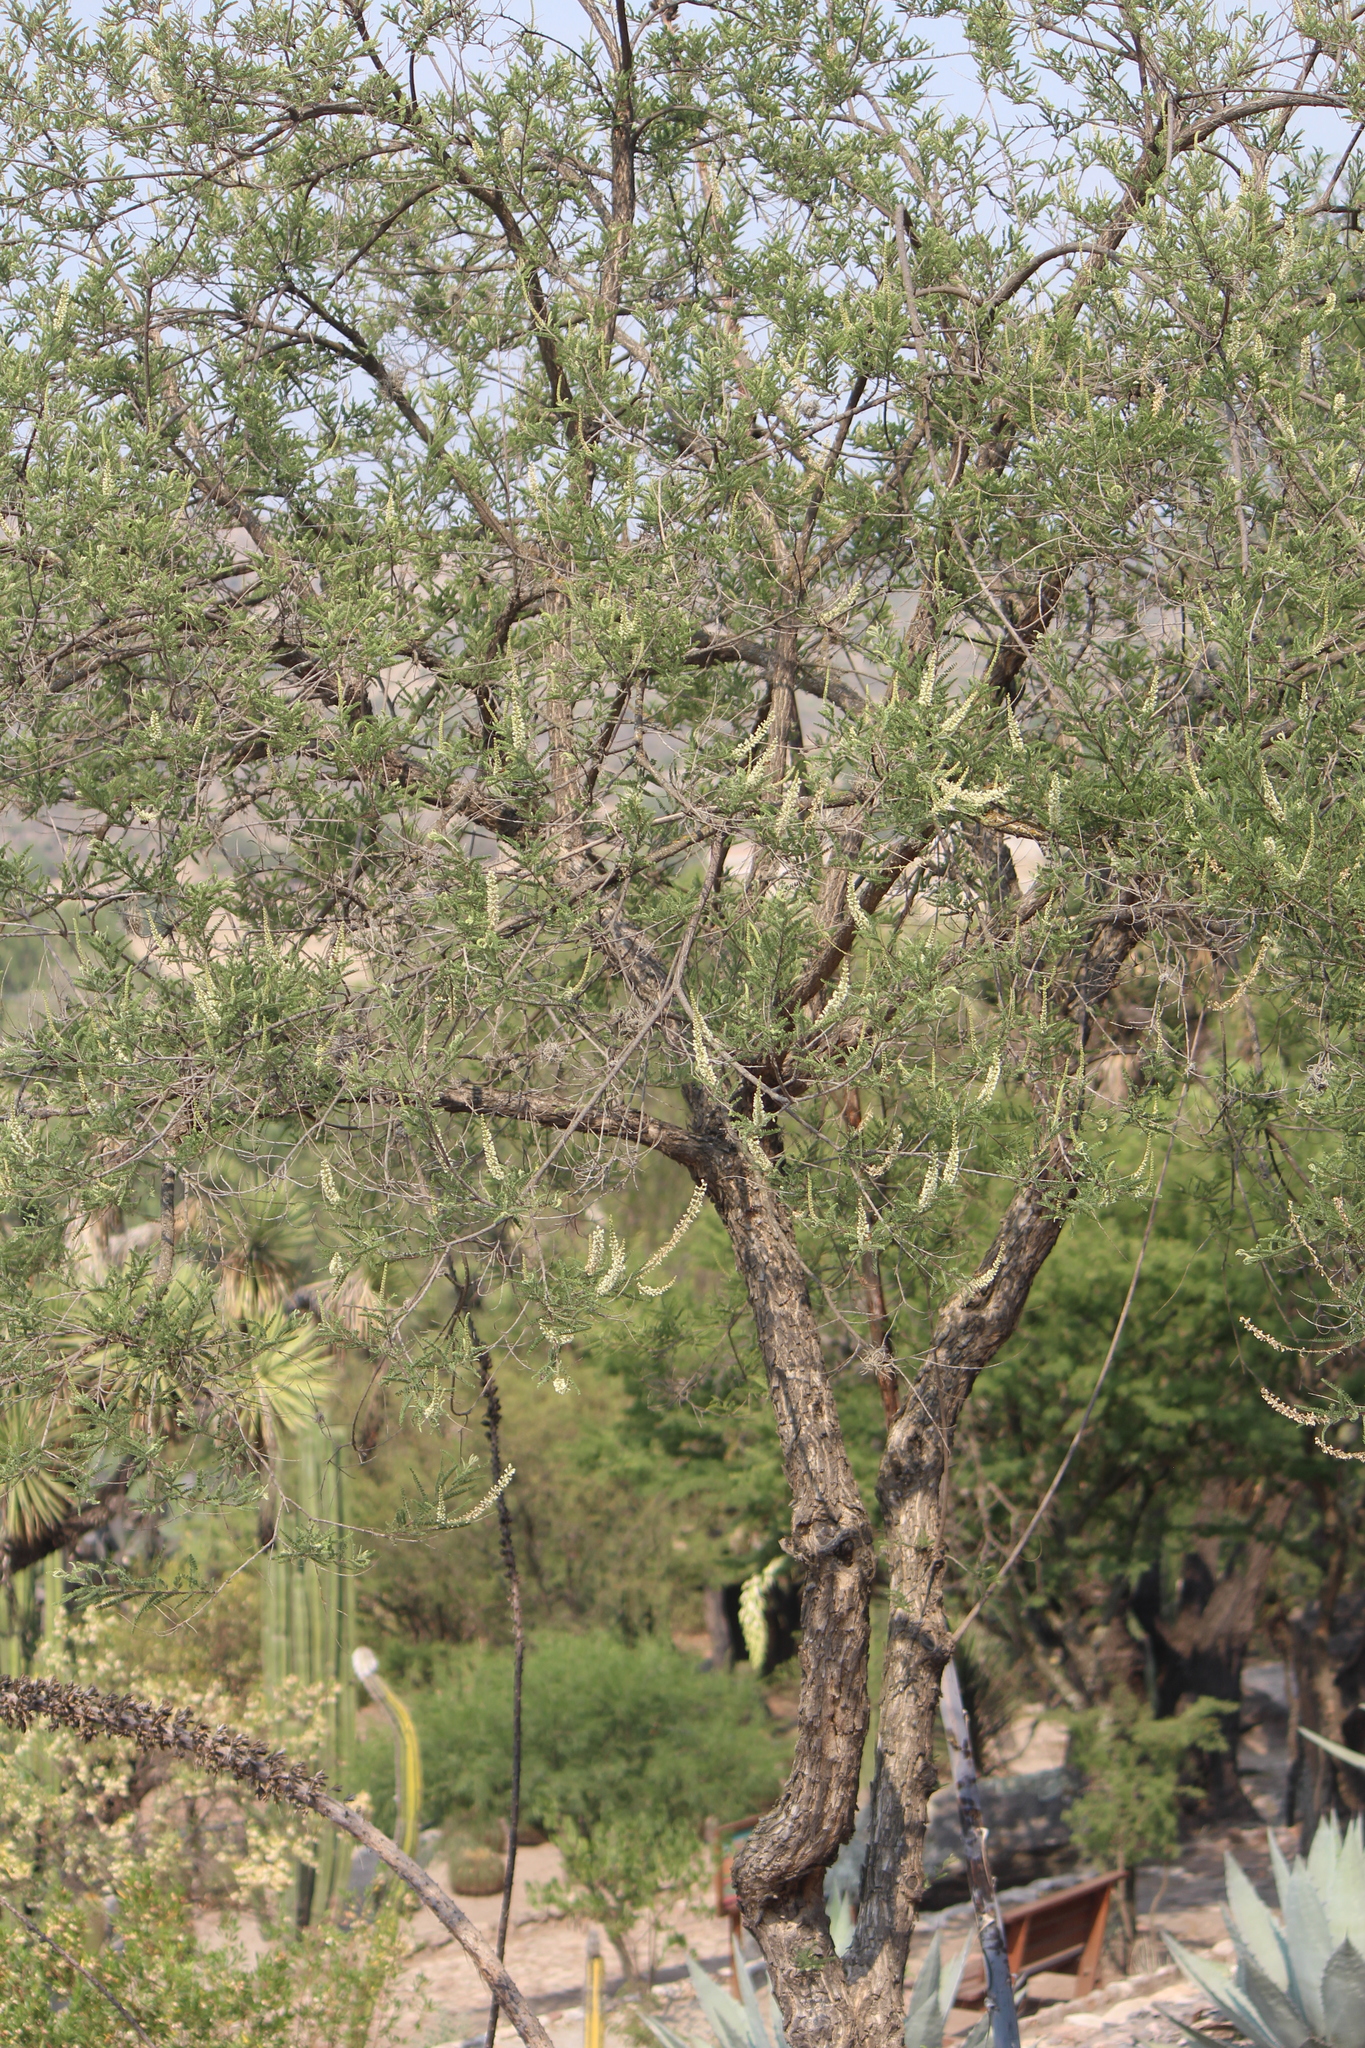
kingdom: Plantae
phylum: Tracheophyta
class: Magnoliopsida
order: Fabales
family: Fabaceae
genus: Eysenhardtia
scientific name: Eysenhardtia polystachya
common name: Kidneywood
